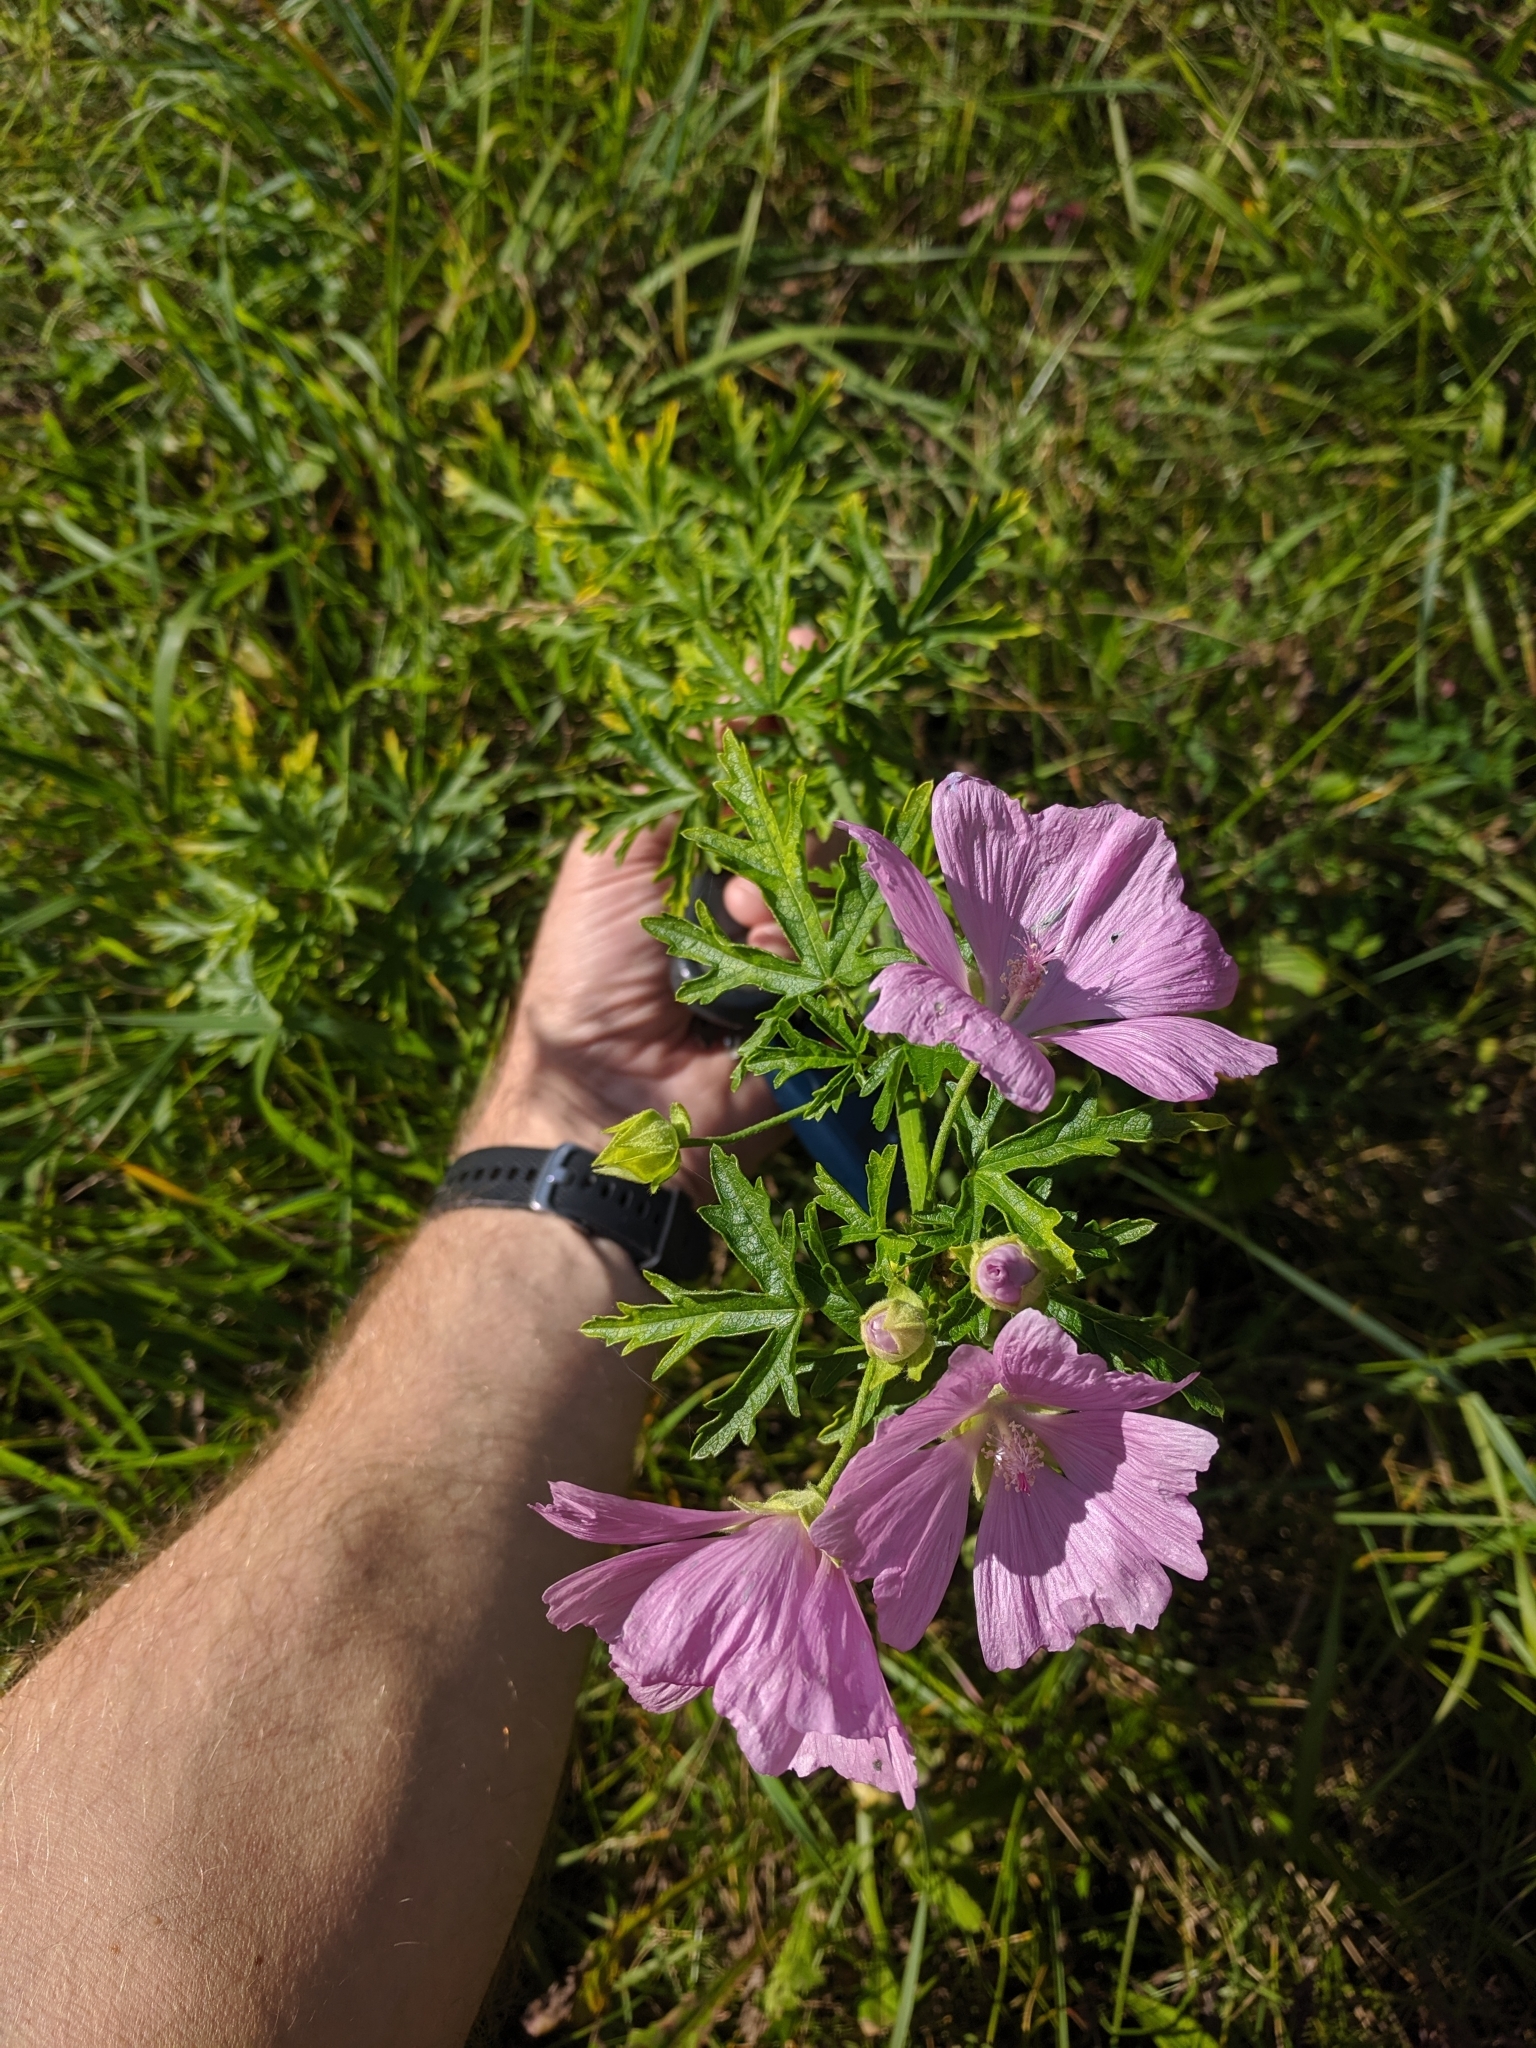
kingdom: Plantae
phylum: Tracheophyta
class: Magnoliopsida
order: Malvales
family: Malvaceae
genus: Malva
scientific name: Malva alcea
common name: Greater musk-mallow
